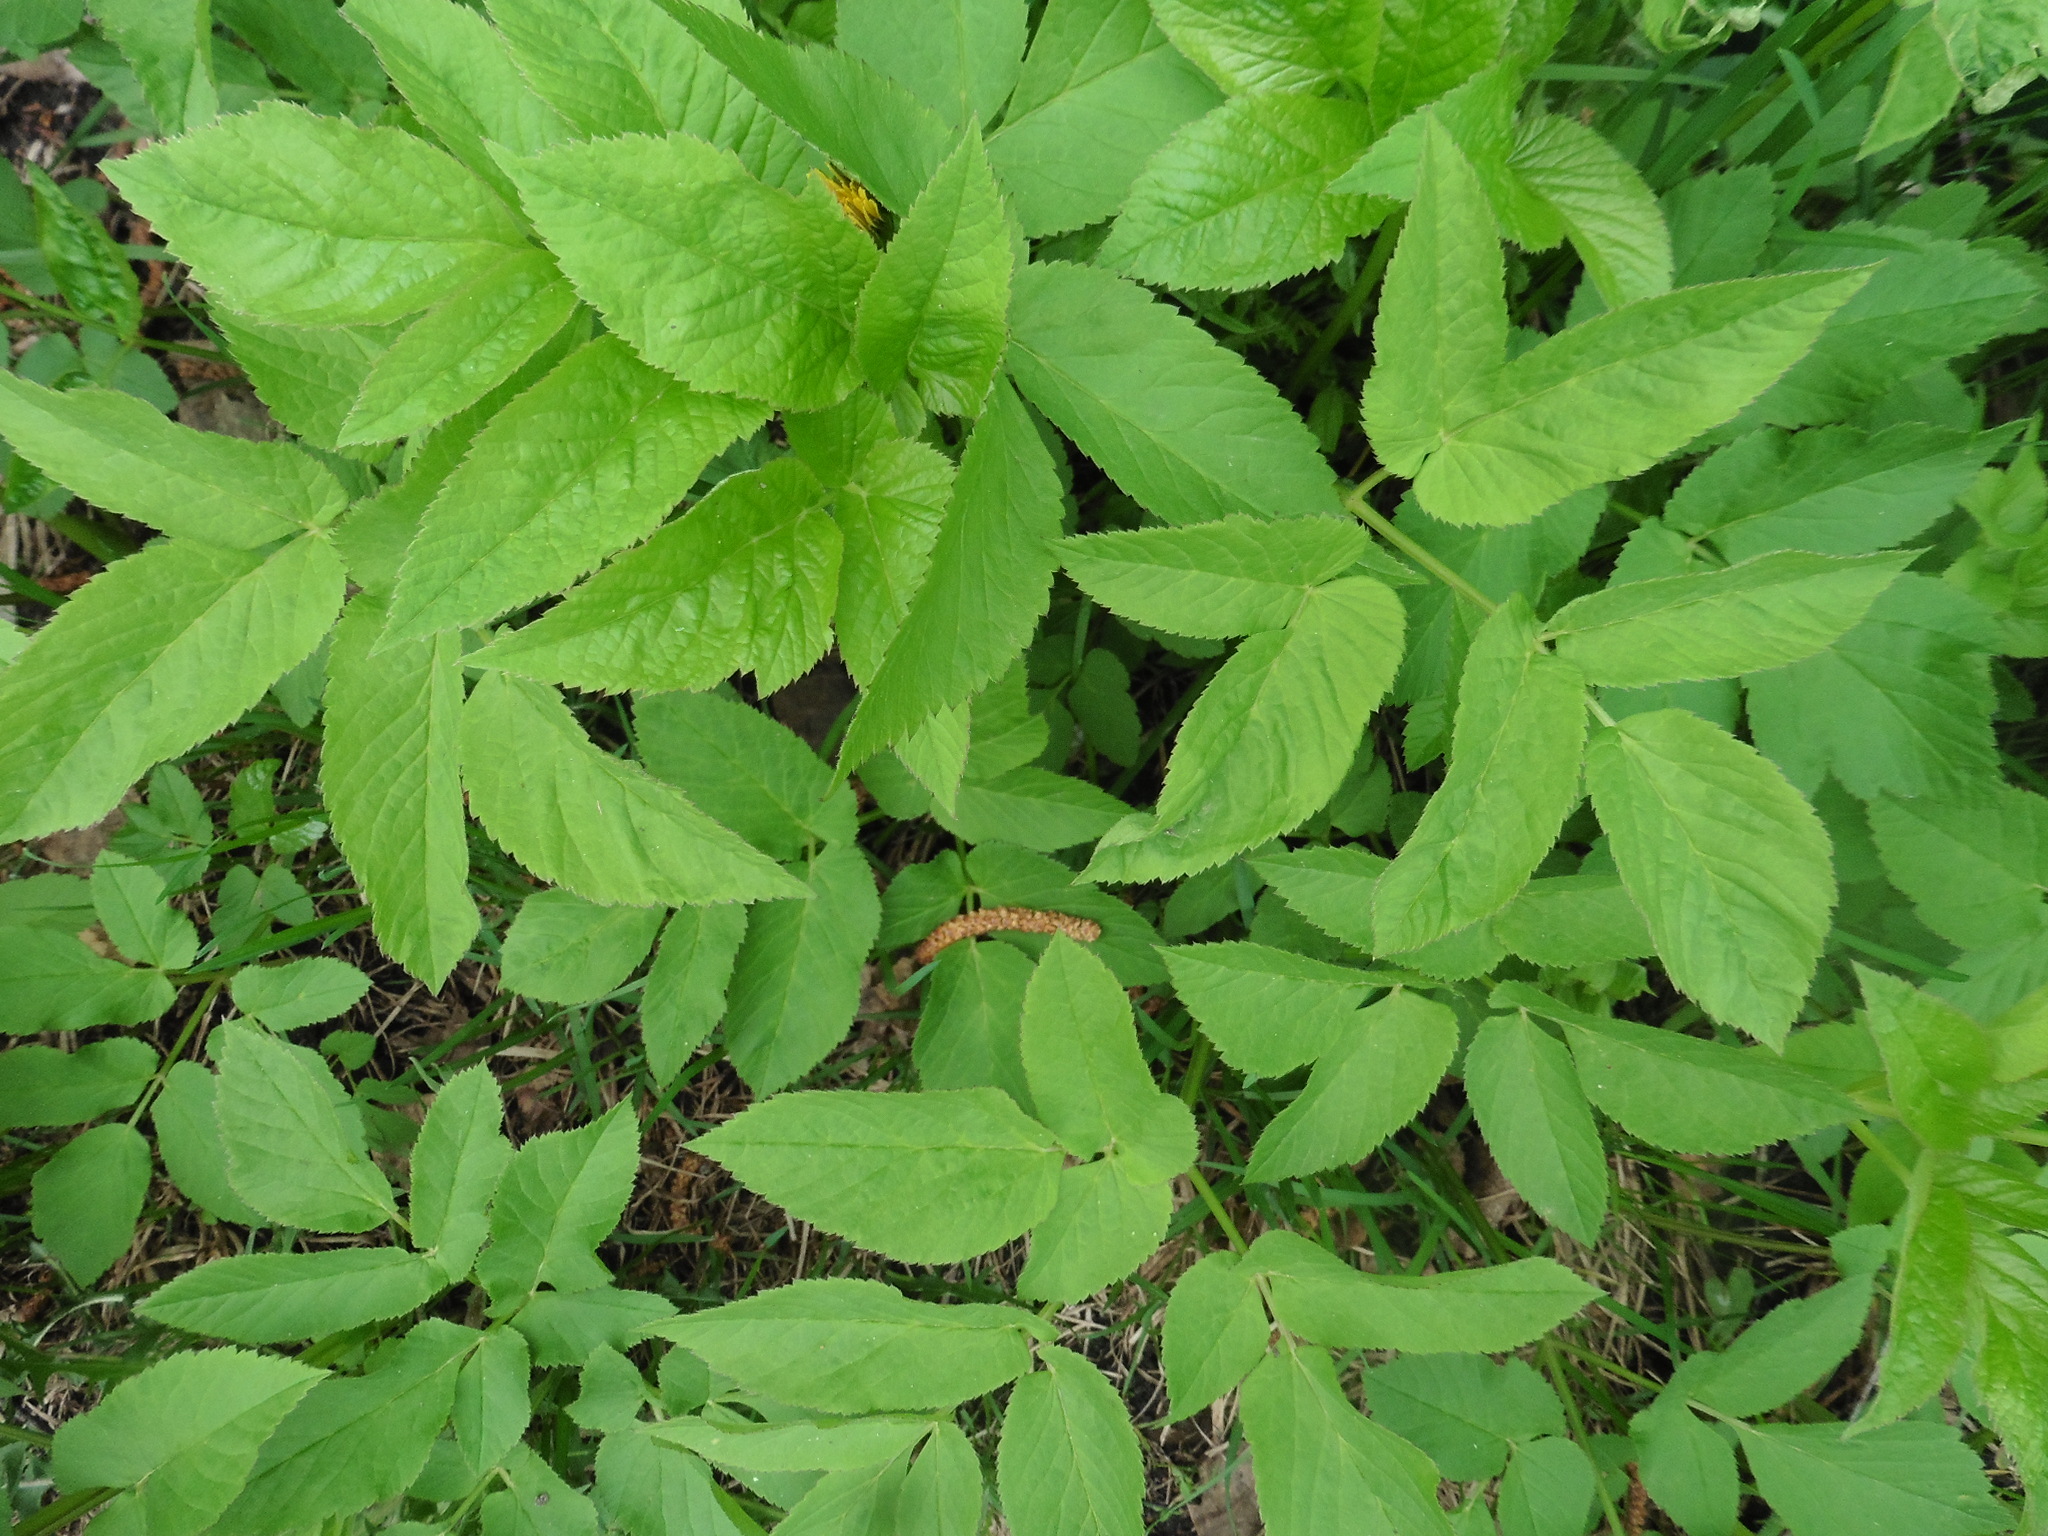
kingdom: Plantae
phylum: Tracheophyta
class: Magnoliopsida
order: Apiales
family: Apiaceae
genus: Aegopodium
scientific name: Aegopodium podagraria
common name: Ground-elder
